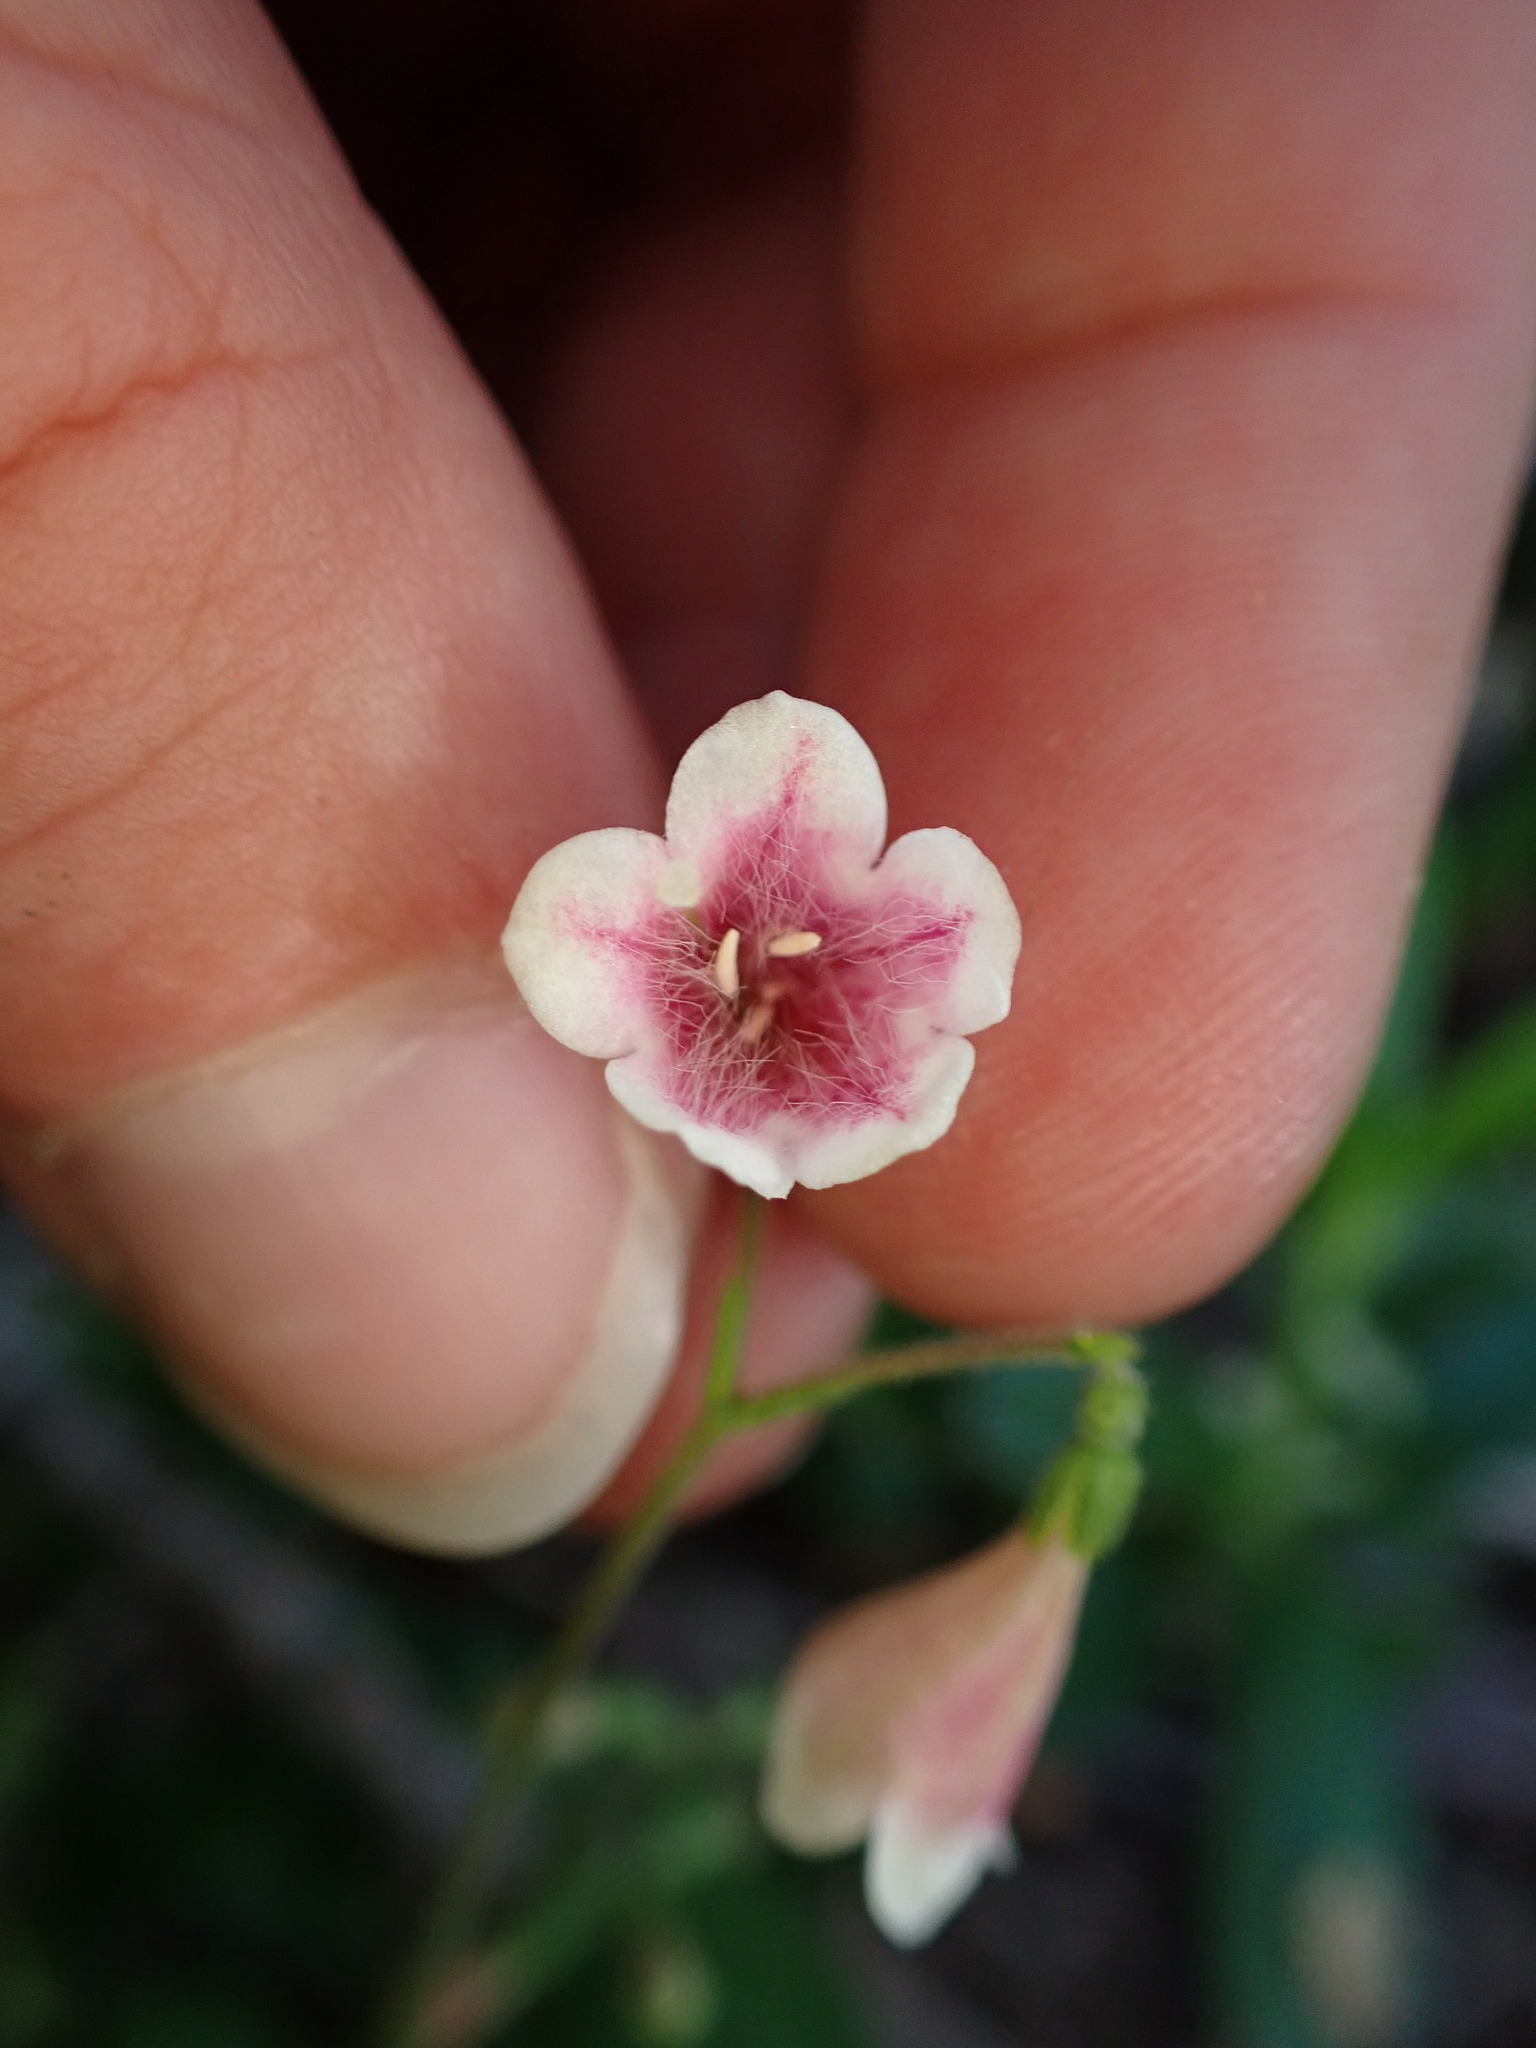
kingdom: Plantae
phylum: Tracheophyta
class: Magnoliopsida
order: Dipsacales
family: Caprifoliaceae
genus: Linnaea
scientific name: Linnaea borealis
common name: Twinflower
